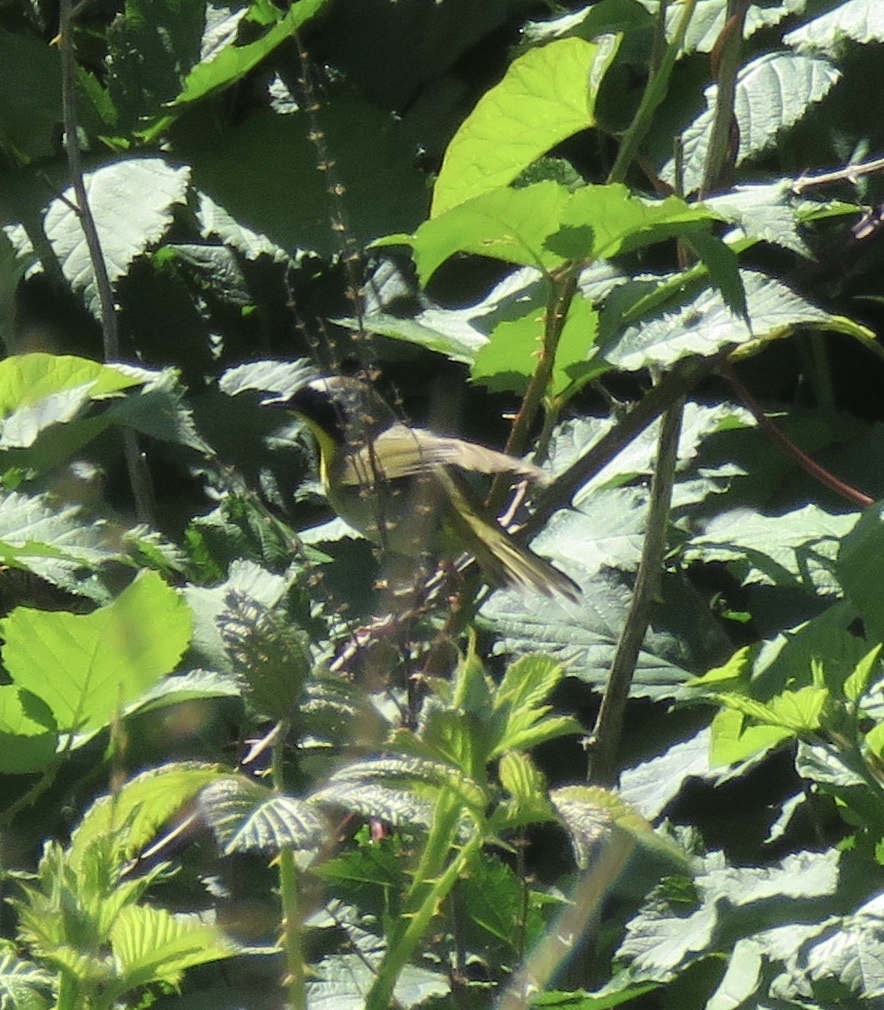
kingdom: Animalia
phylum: Chordata
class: Aves
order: Passeriformes
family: Parulidae
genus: Geothlypis
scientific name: Geothlypis trichas
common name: Common yellowthroat
